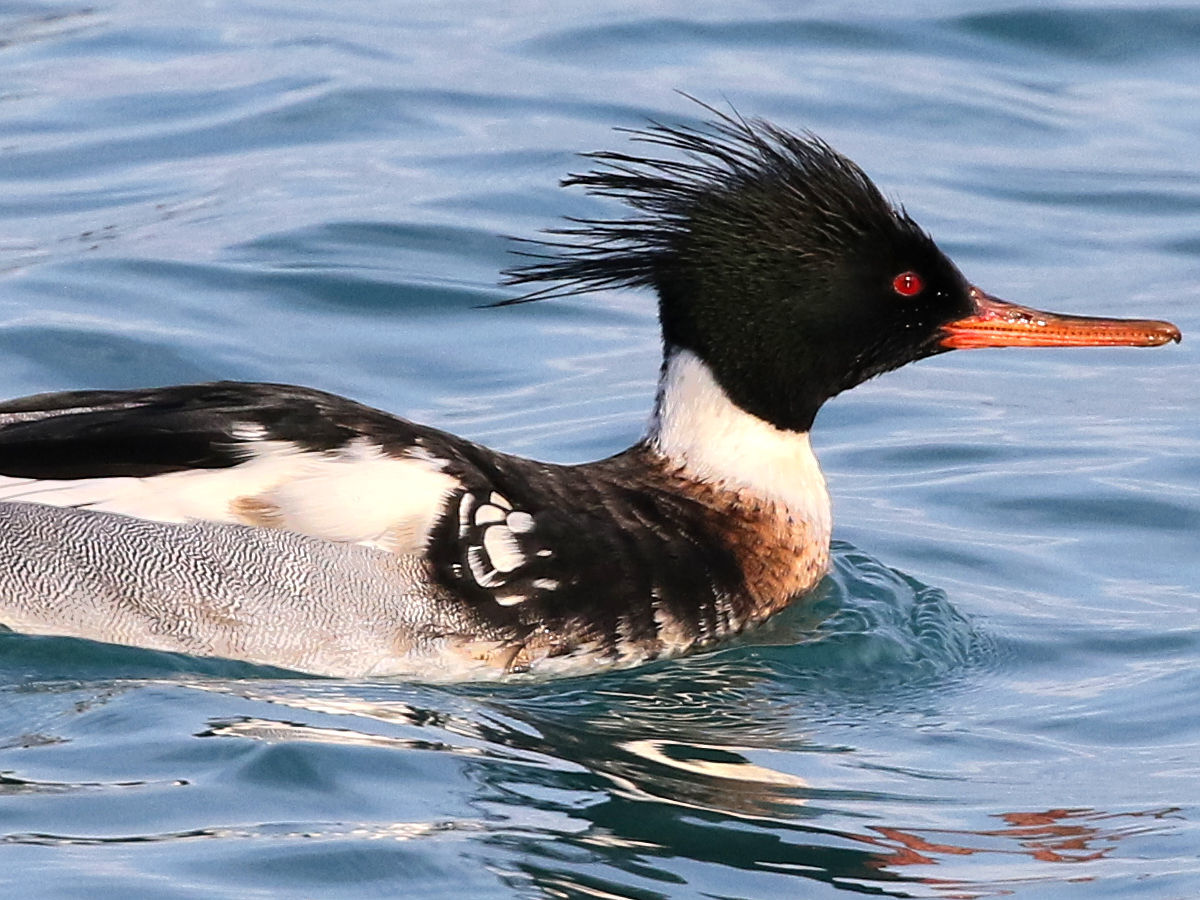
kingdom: Animalia
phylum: Chordata
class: Aves
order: Anseriformes
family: Anatidae
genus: Mergus
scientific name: Mergus serrator
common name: Red-breasted merganser
